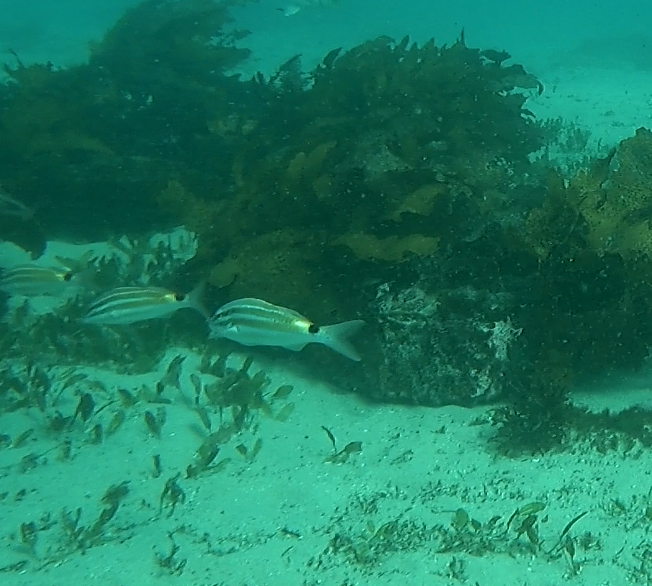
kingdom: Animalia
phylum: Chordata
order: Perciformes
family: Mullidae
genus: Parupeneus
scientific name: Parupeneus spilurus
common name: Blackspot goatfish
